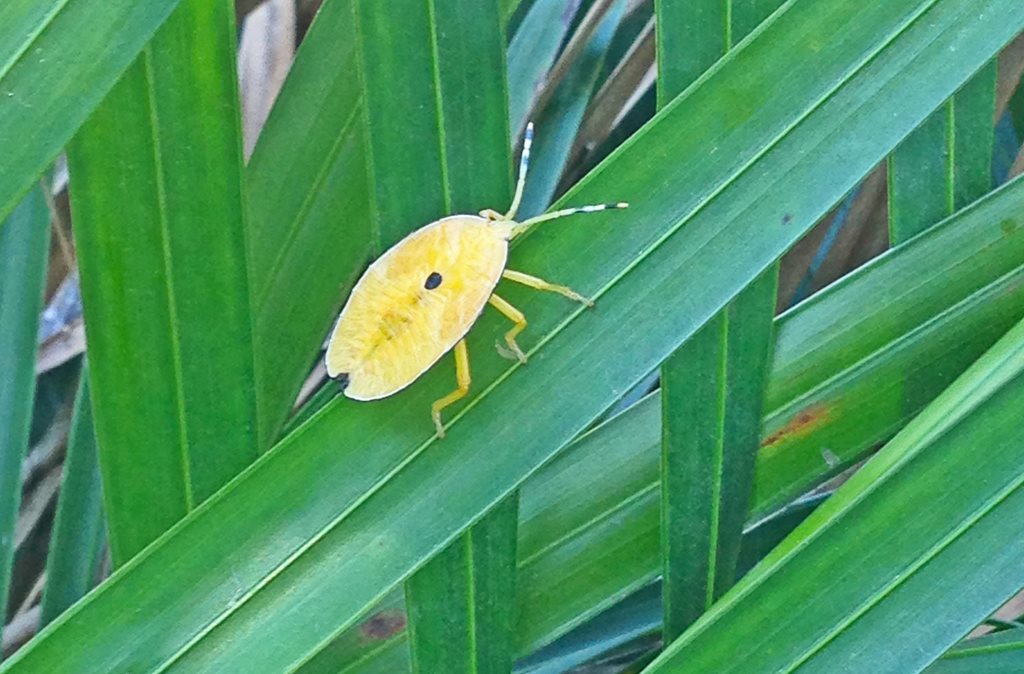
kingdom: Animalia
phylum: Arthropoda
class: Insecta
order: Hemiptera
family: Tessaratomidae
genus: Musgraveia
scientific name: Musgraveia sulciventris
